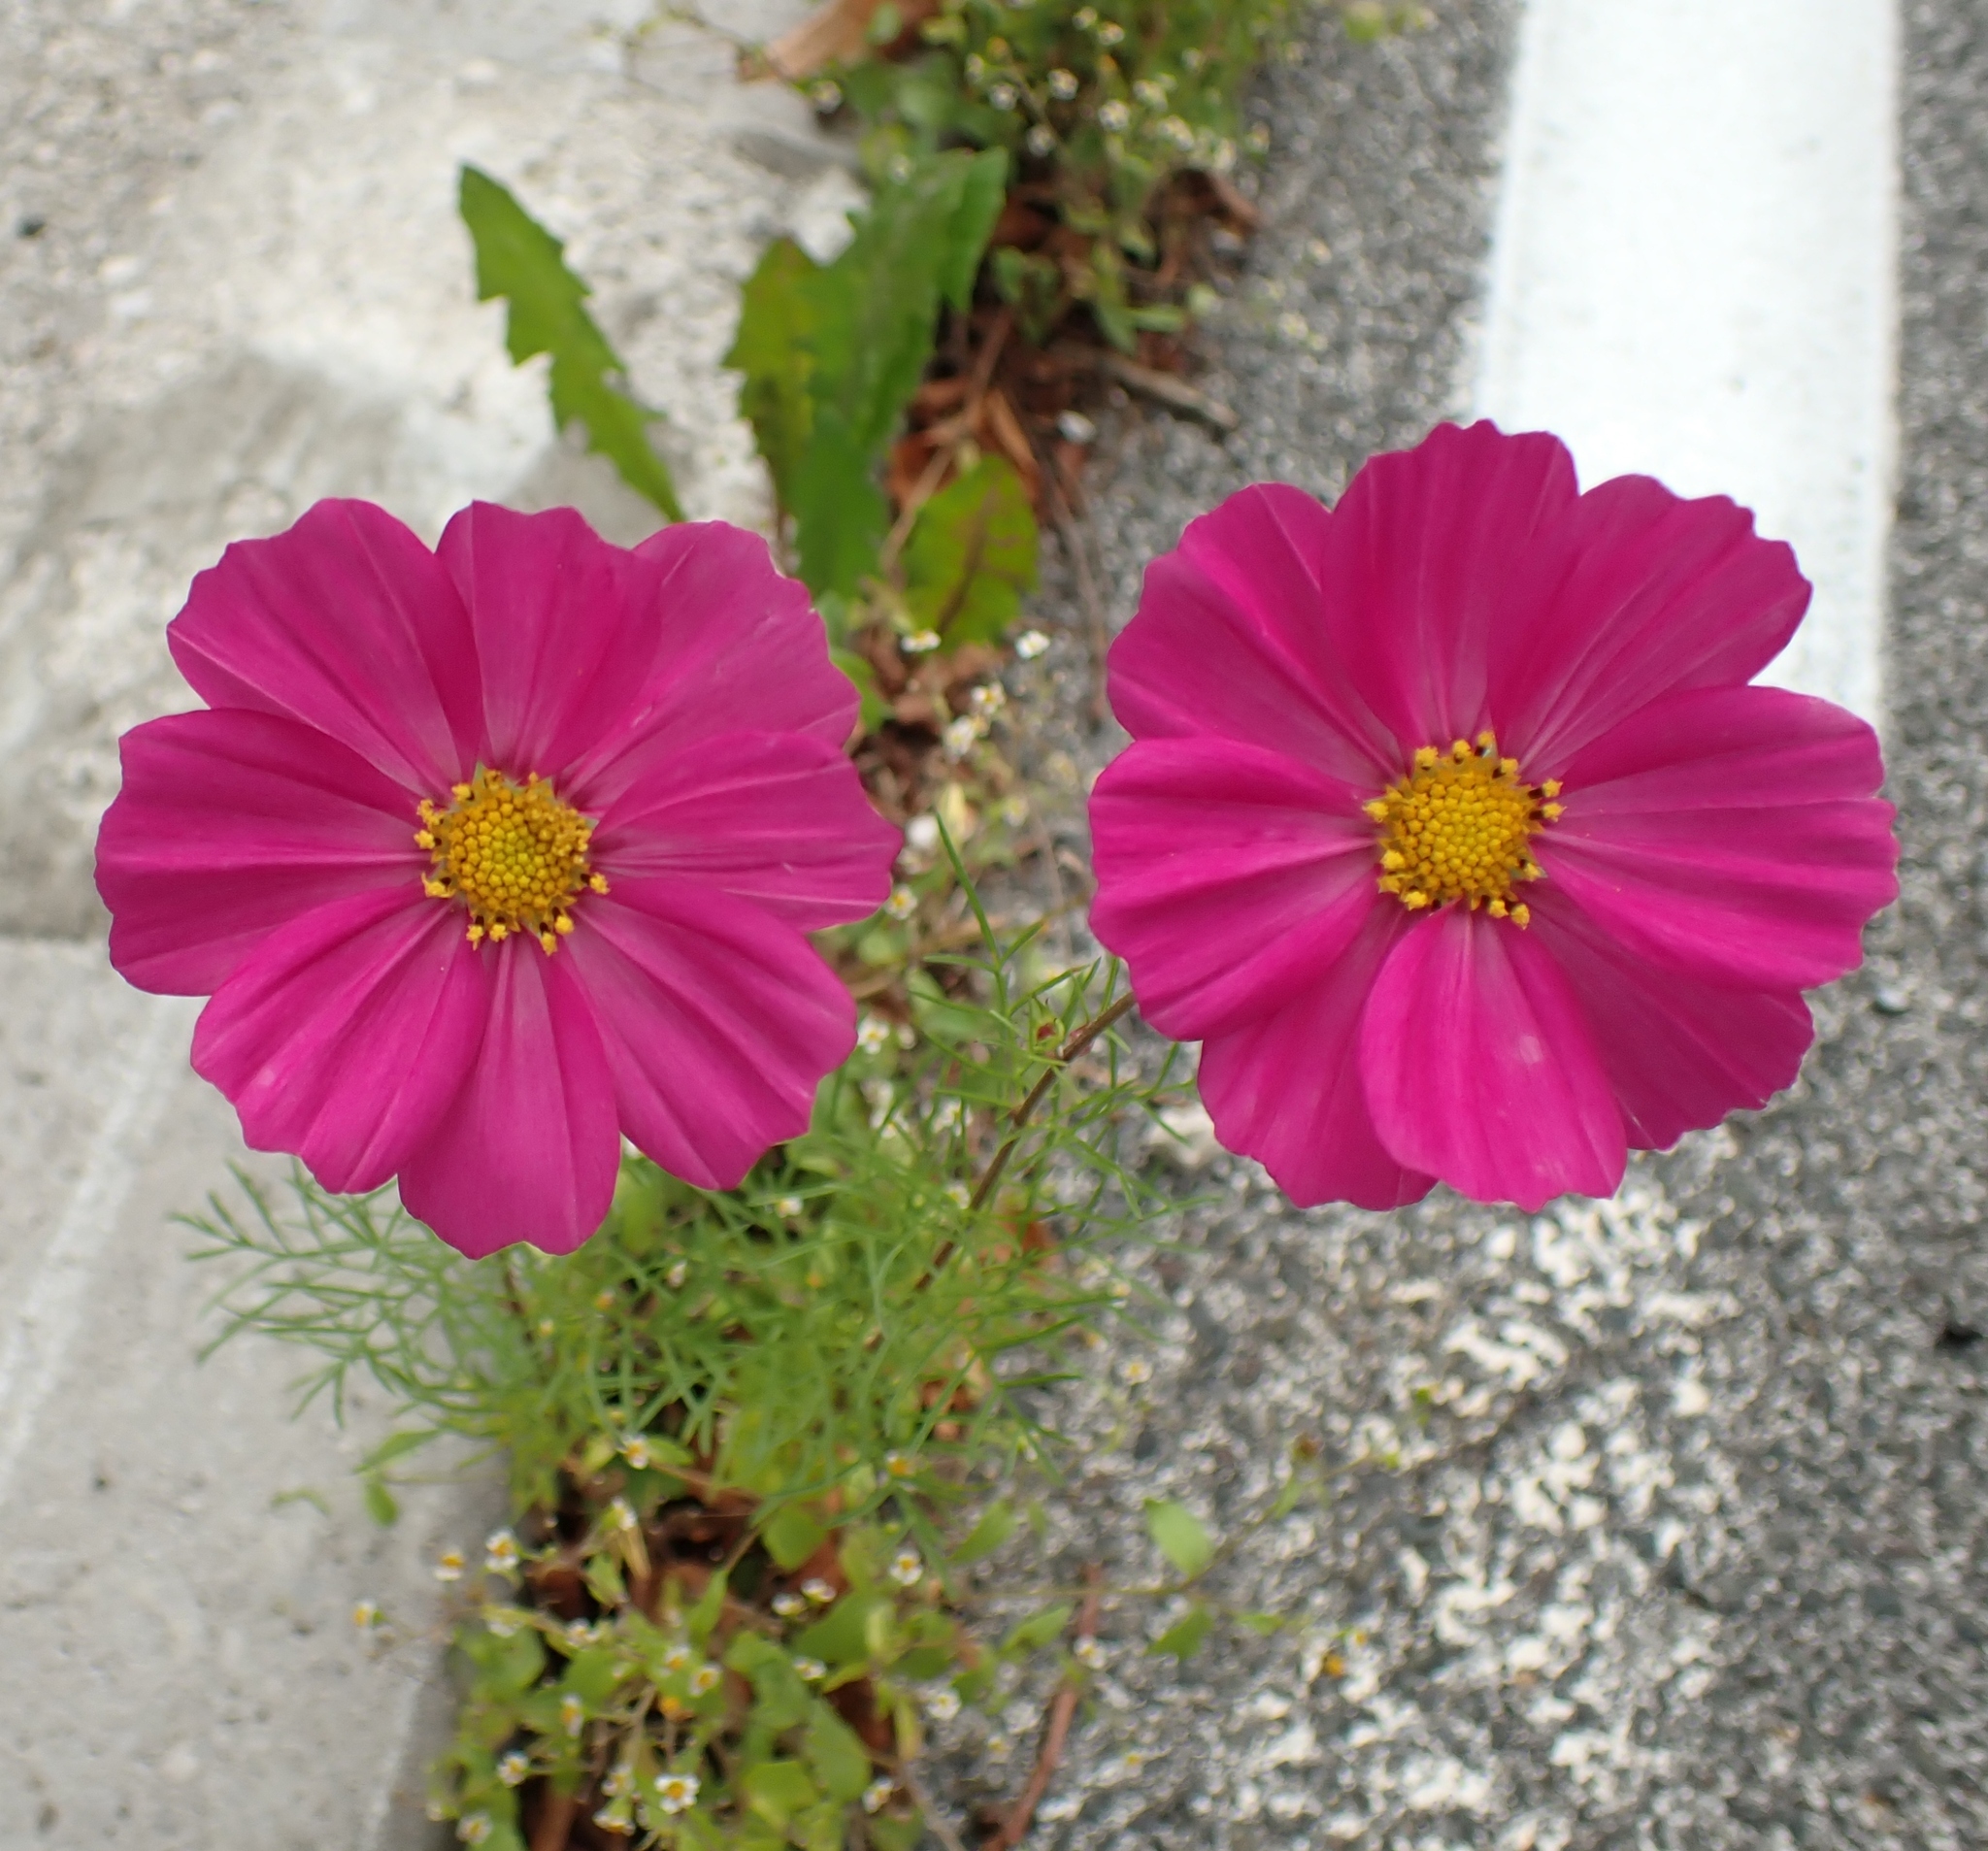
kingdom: Plantae
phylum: Tracheophyta
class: Magnoliopsida
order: Asterales
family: Asteraceae
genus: Cosmos
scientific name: Cosmos bipinnatus
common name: Garden cosmos
